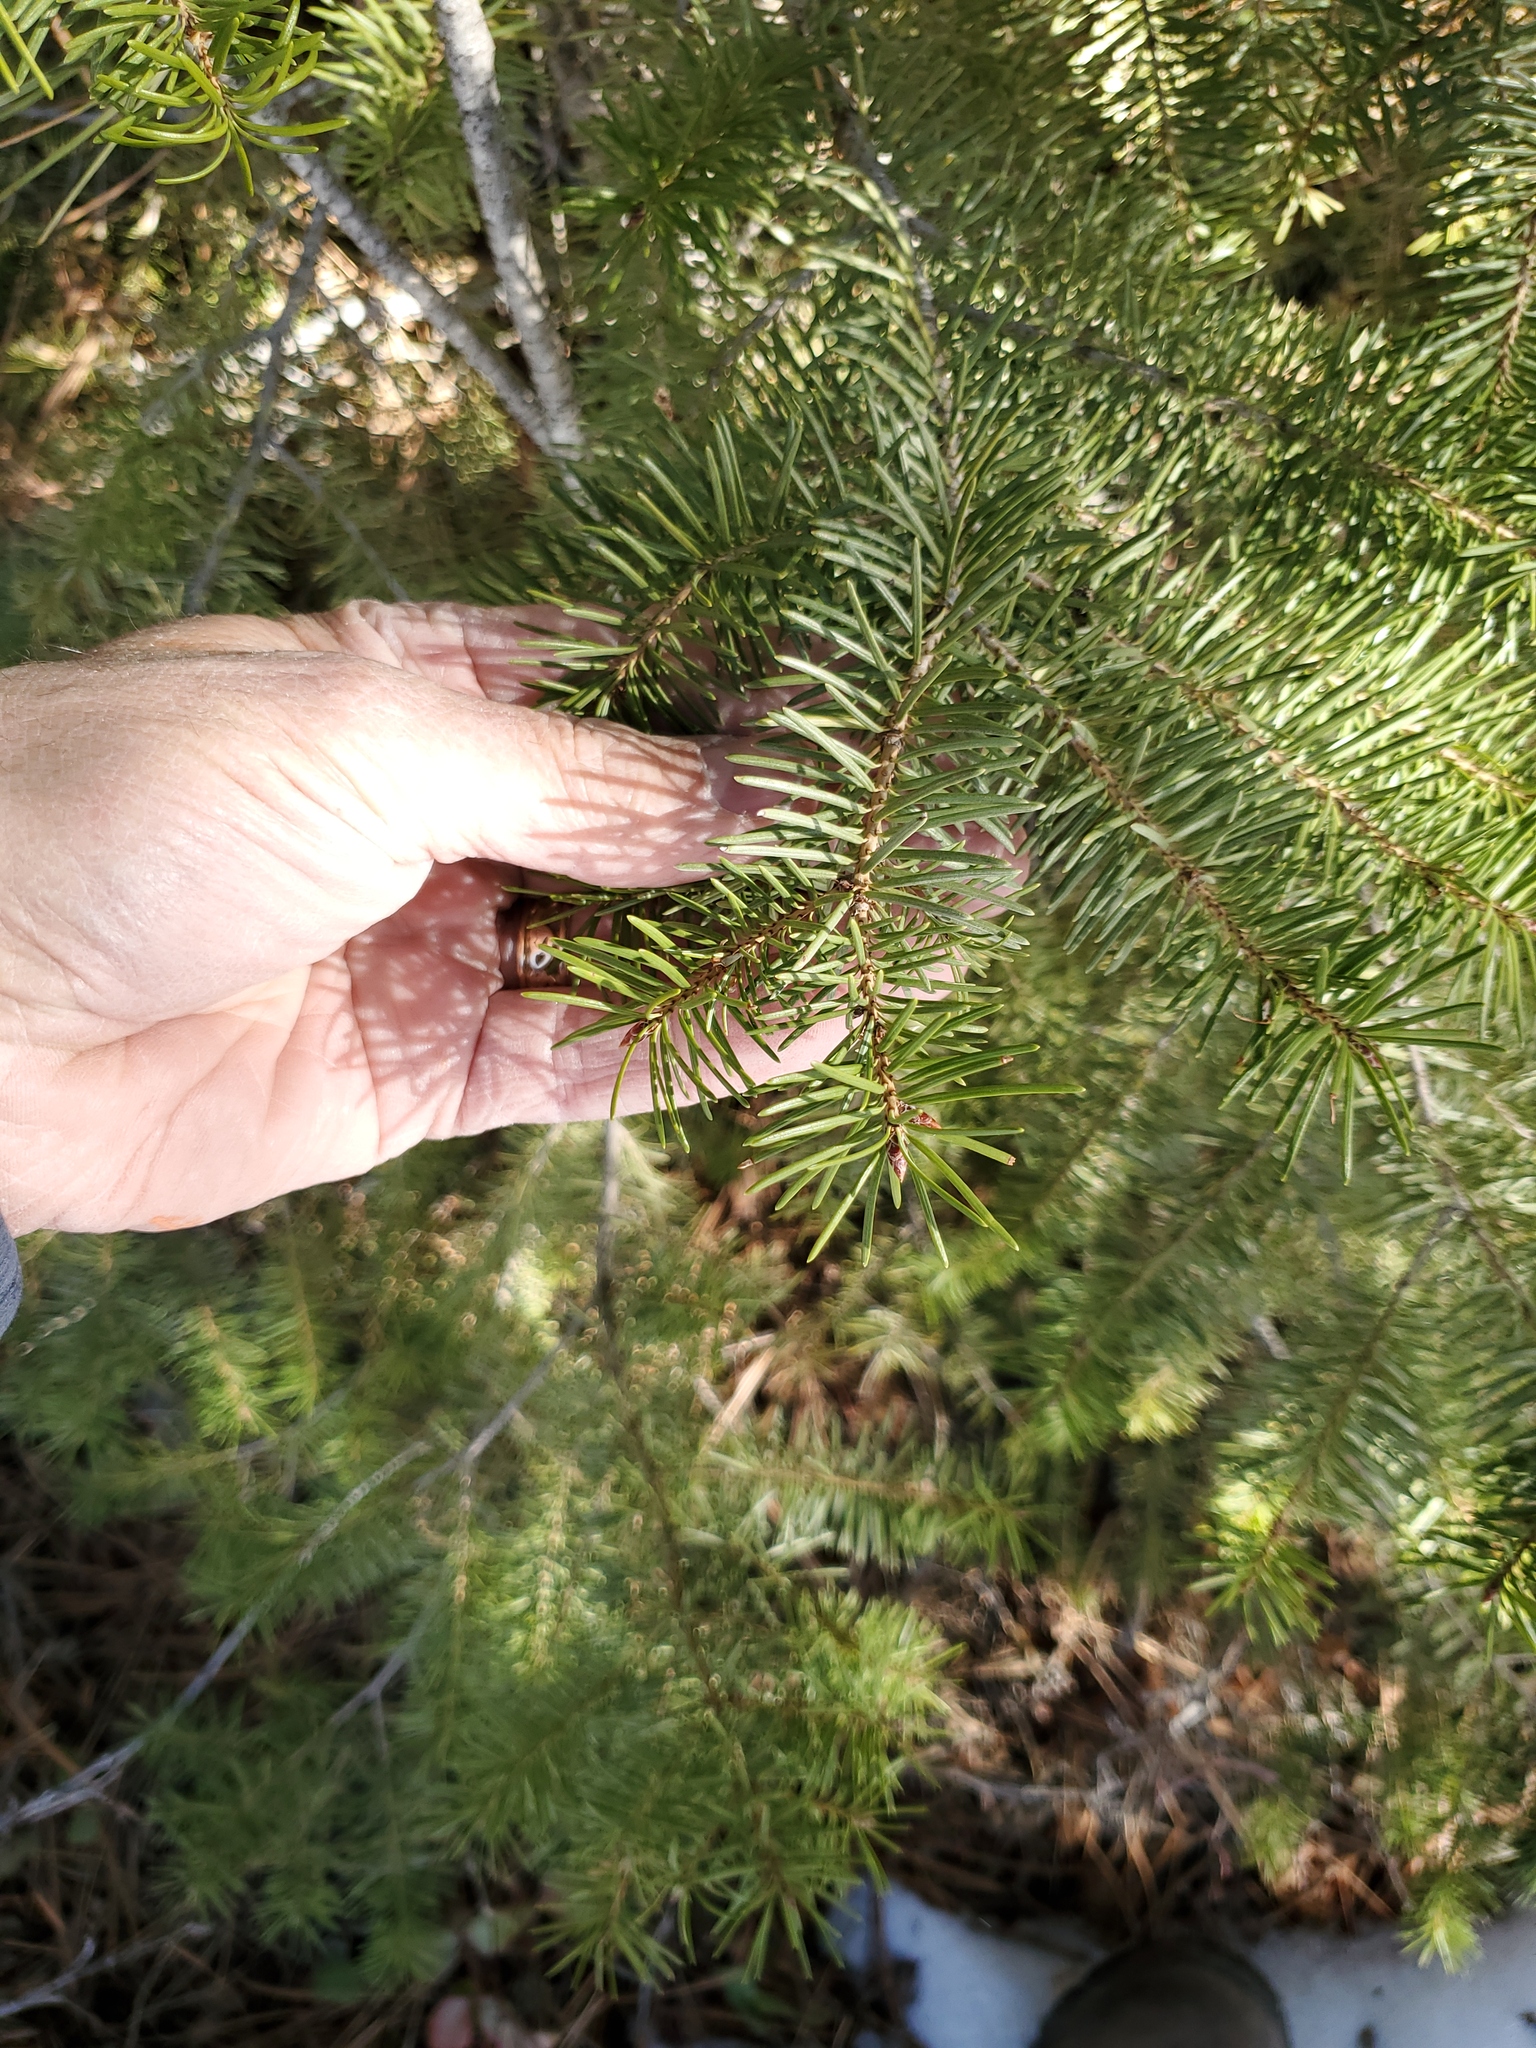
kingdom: Plantae
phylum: Tracheophyta
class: Pinopsida
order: Pinales
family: Pinaceae
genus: Pseudotsuga
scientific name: Pseudotsuga menziesii
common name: Douglas fir
